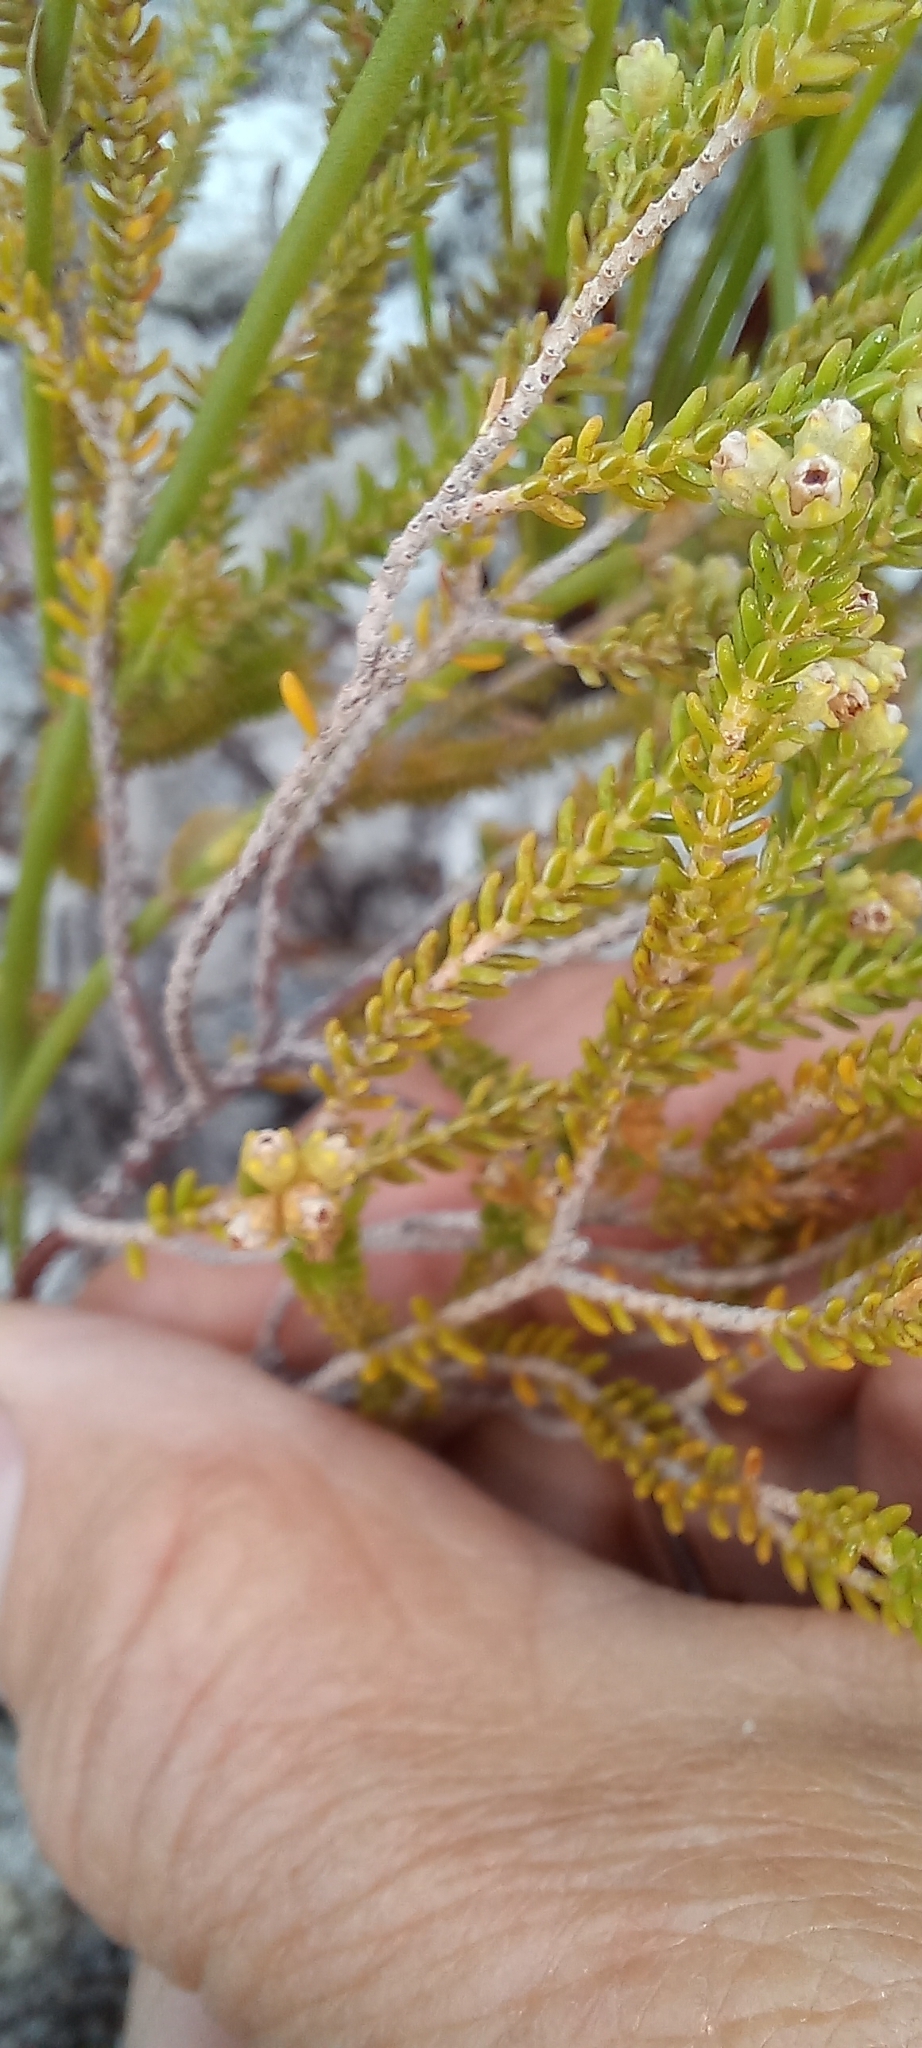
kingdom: Plantae
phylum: Tracheophyta
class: Magnoliopsida
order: Ericales
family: Ericaceae
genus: Erica
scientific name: Erica serrata
